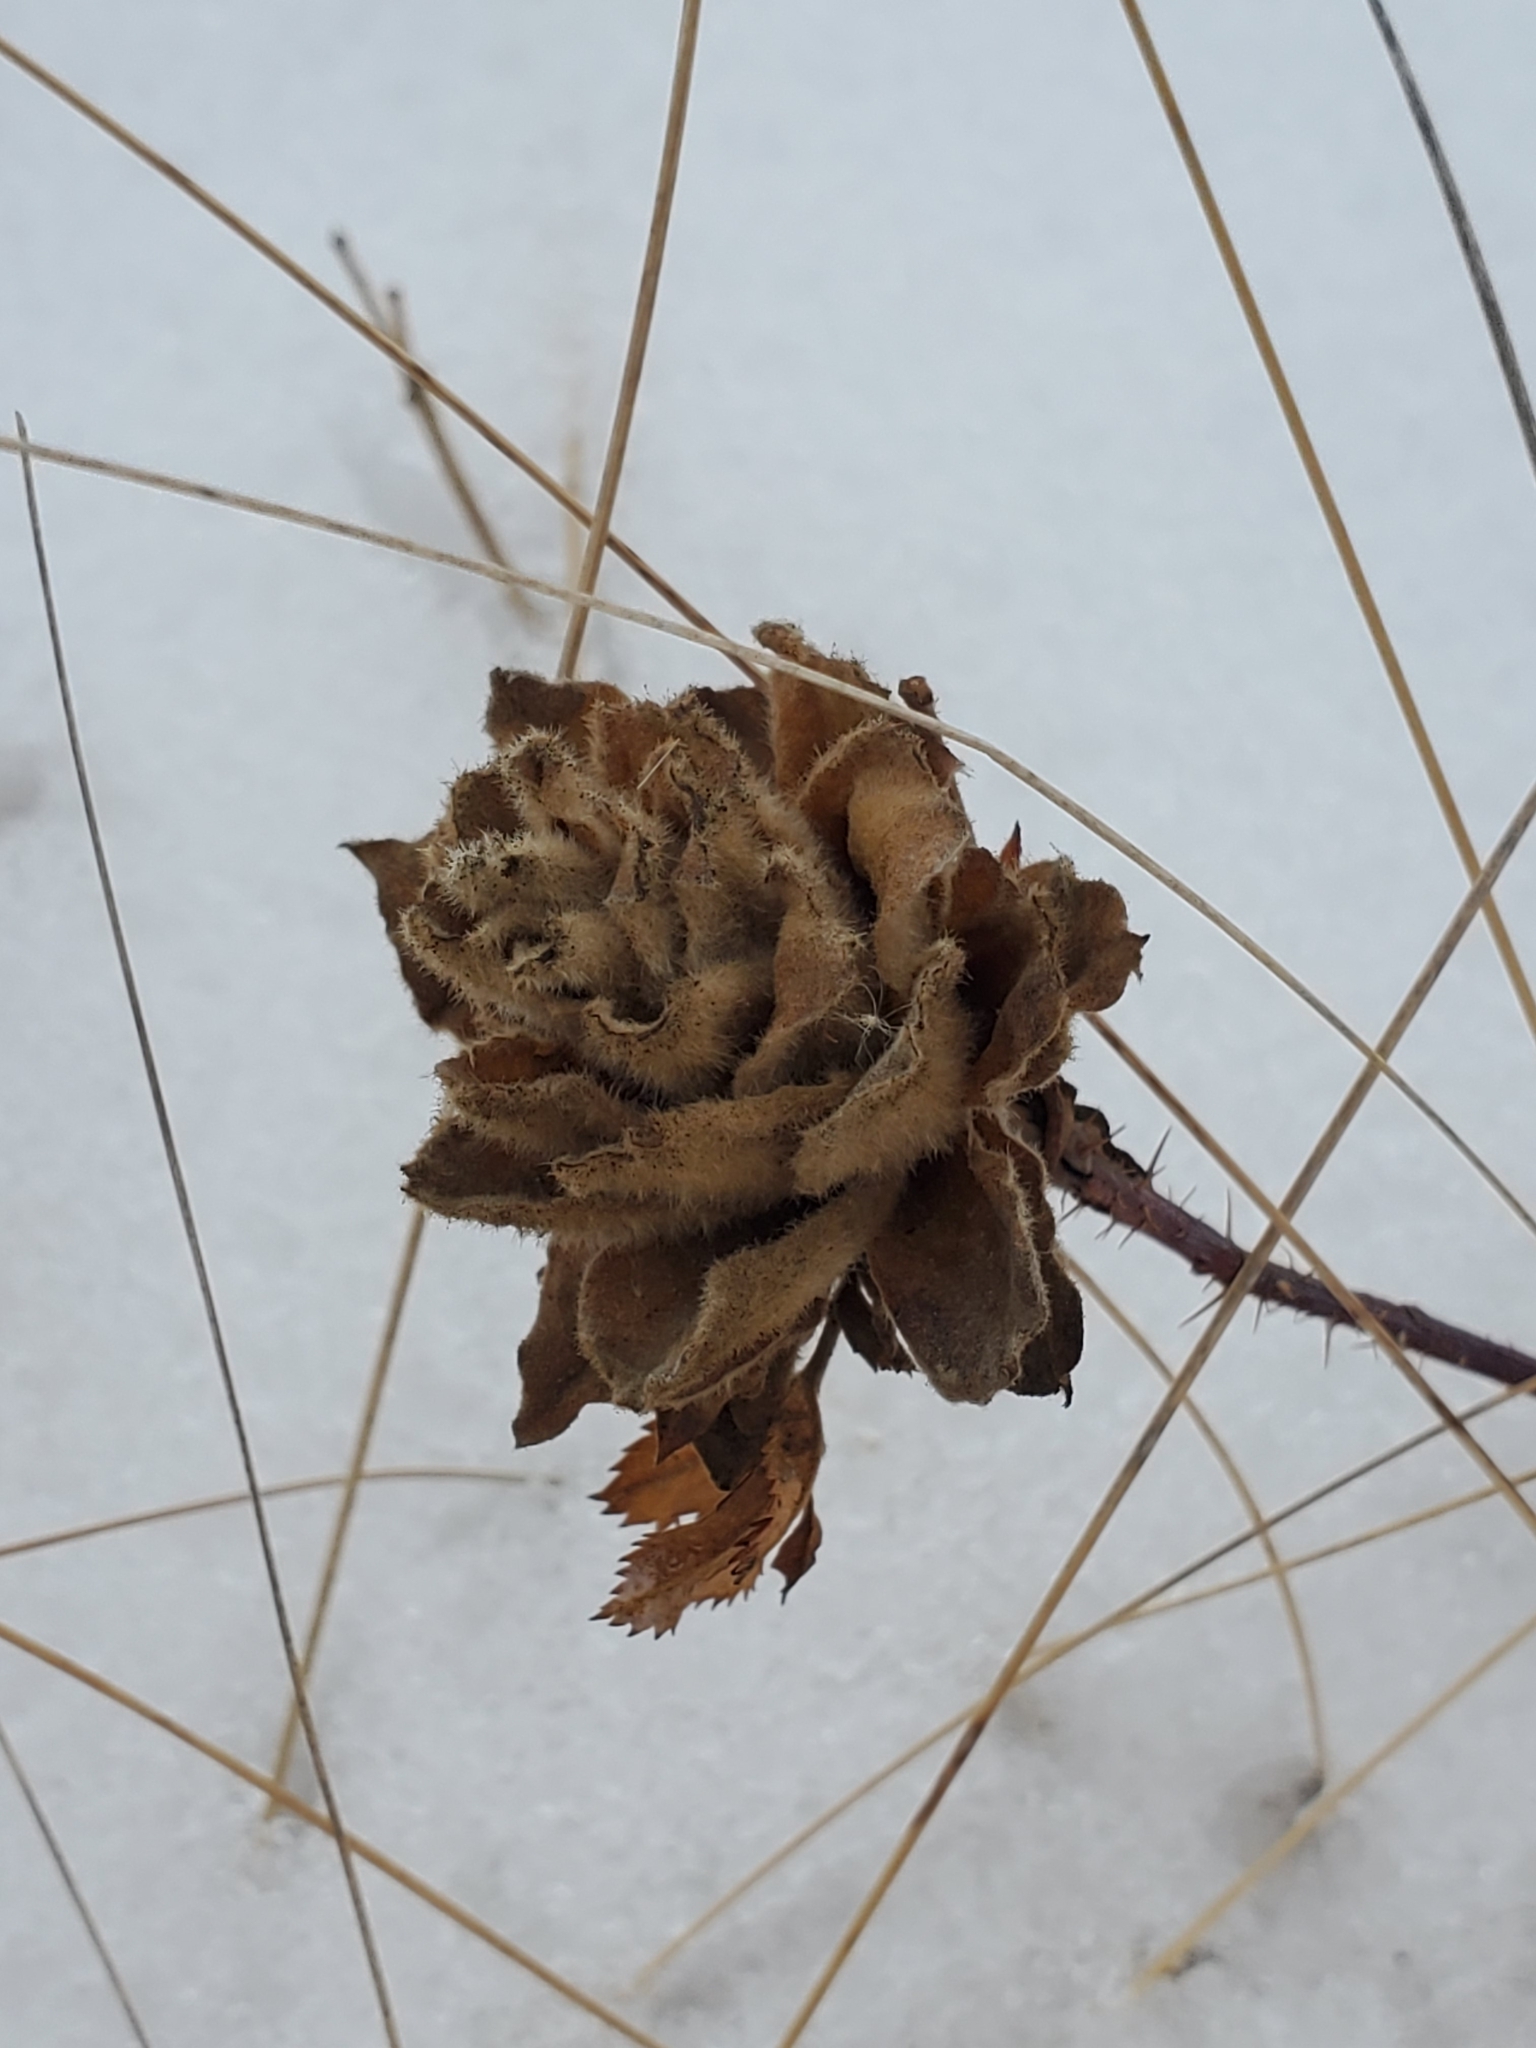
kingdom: Animalia
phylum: Arthropoda
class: Insecta
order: Diptera
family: Cecidomyiidae
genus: Rabdophaga
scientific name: Rabdophaga rosacea
